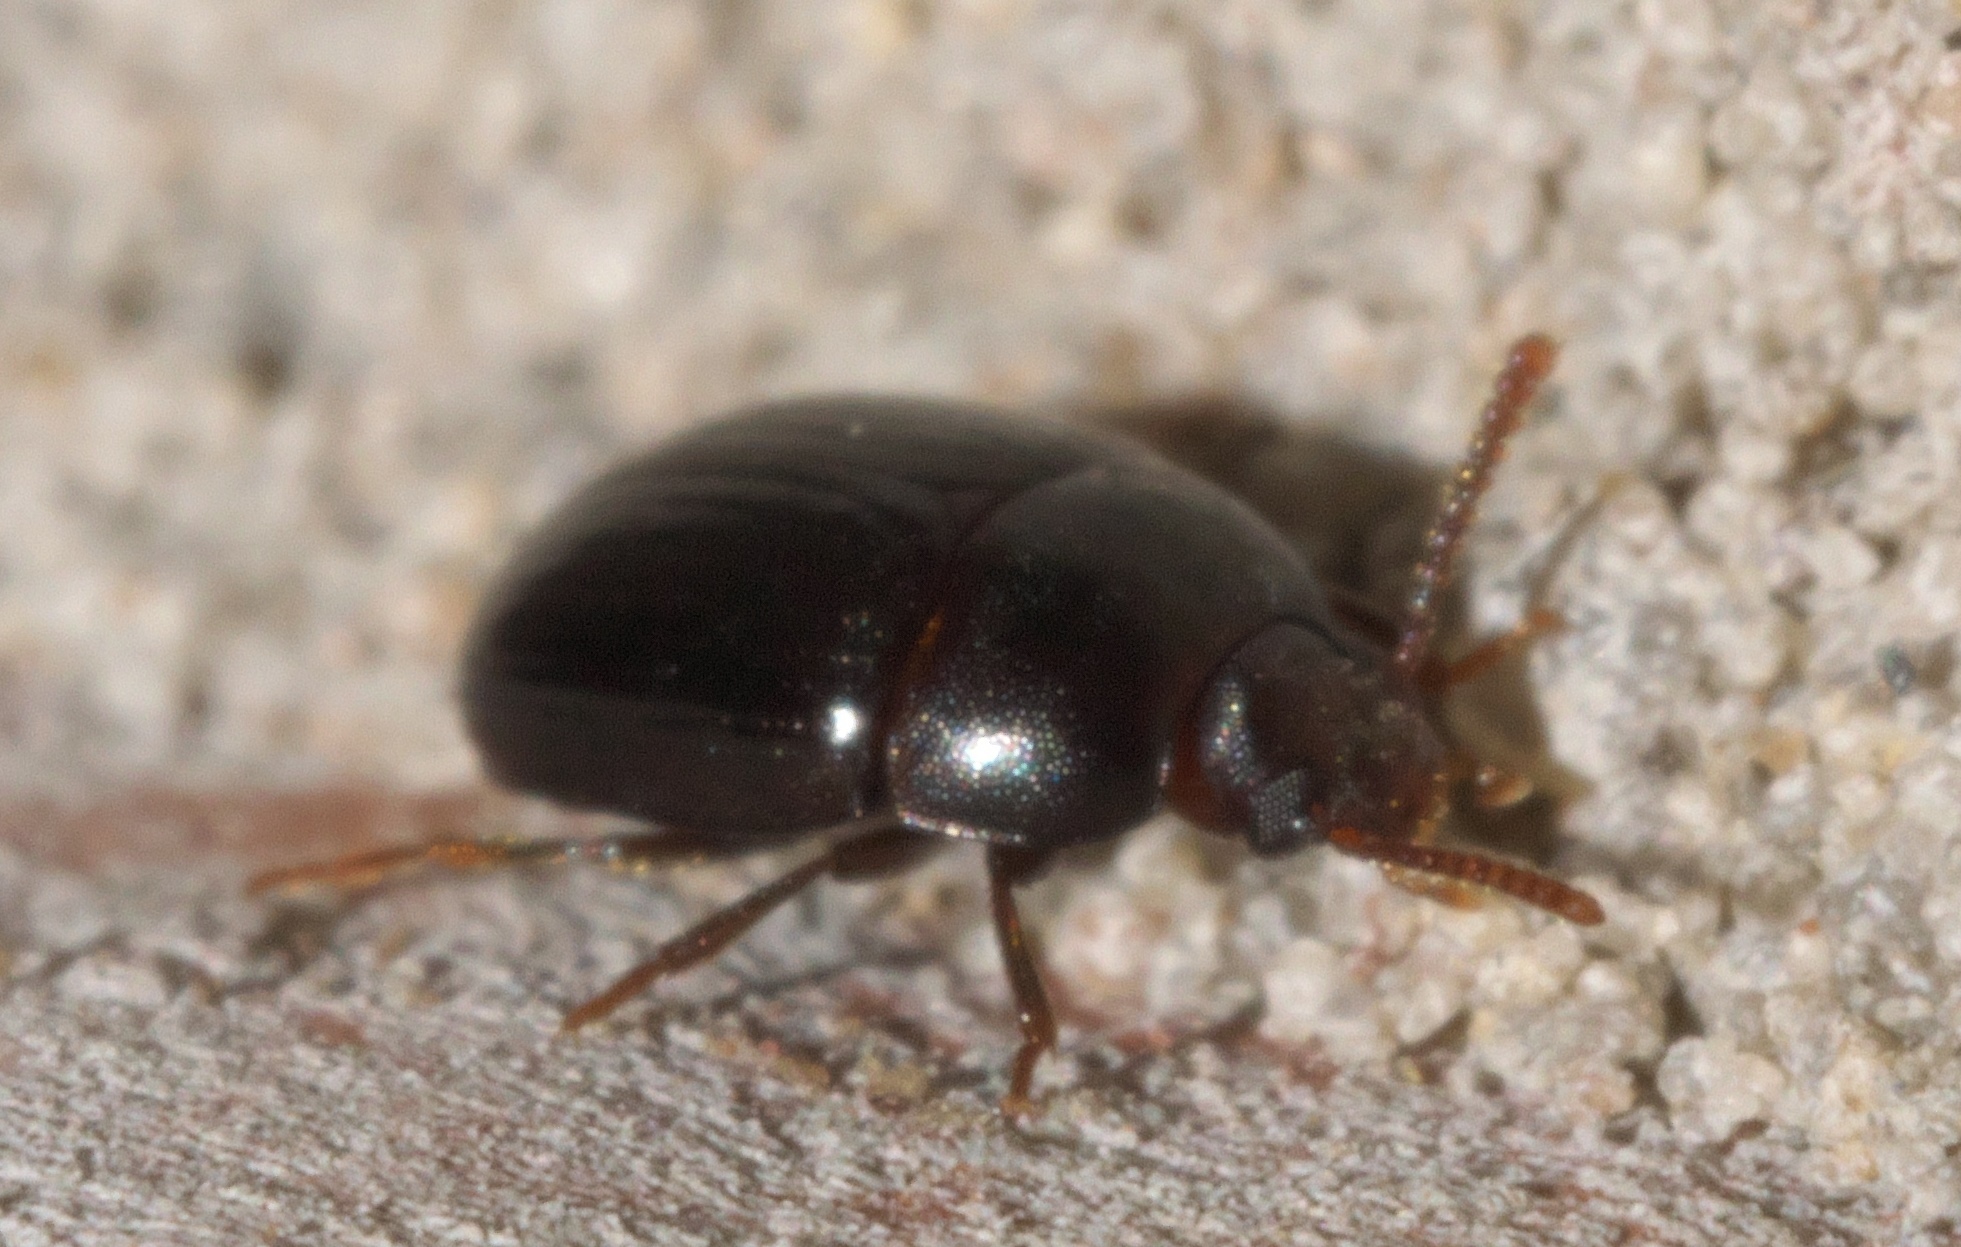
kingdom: Animalia
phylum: Arthropoda
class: Insecta
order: Coleoptera
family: Tenebrionidae
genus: Platydema
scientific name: Platydema micans
